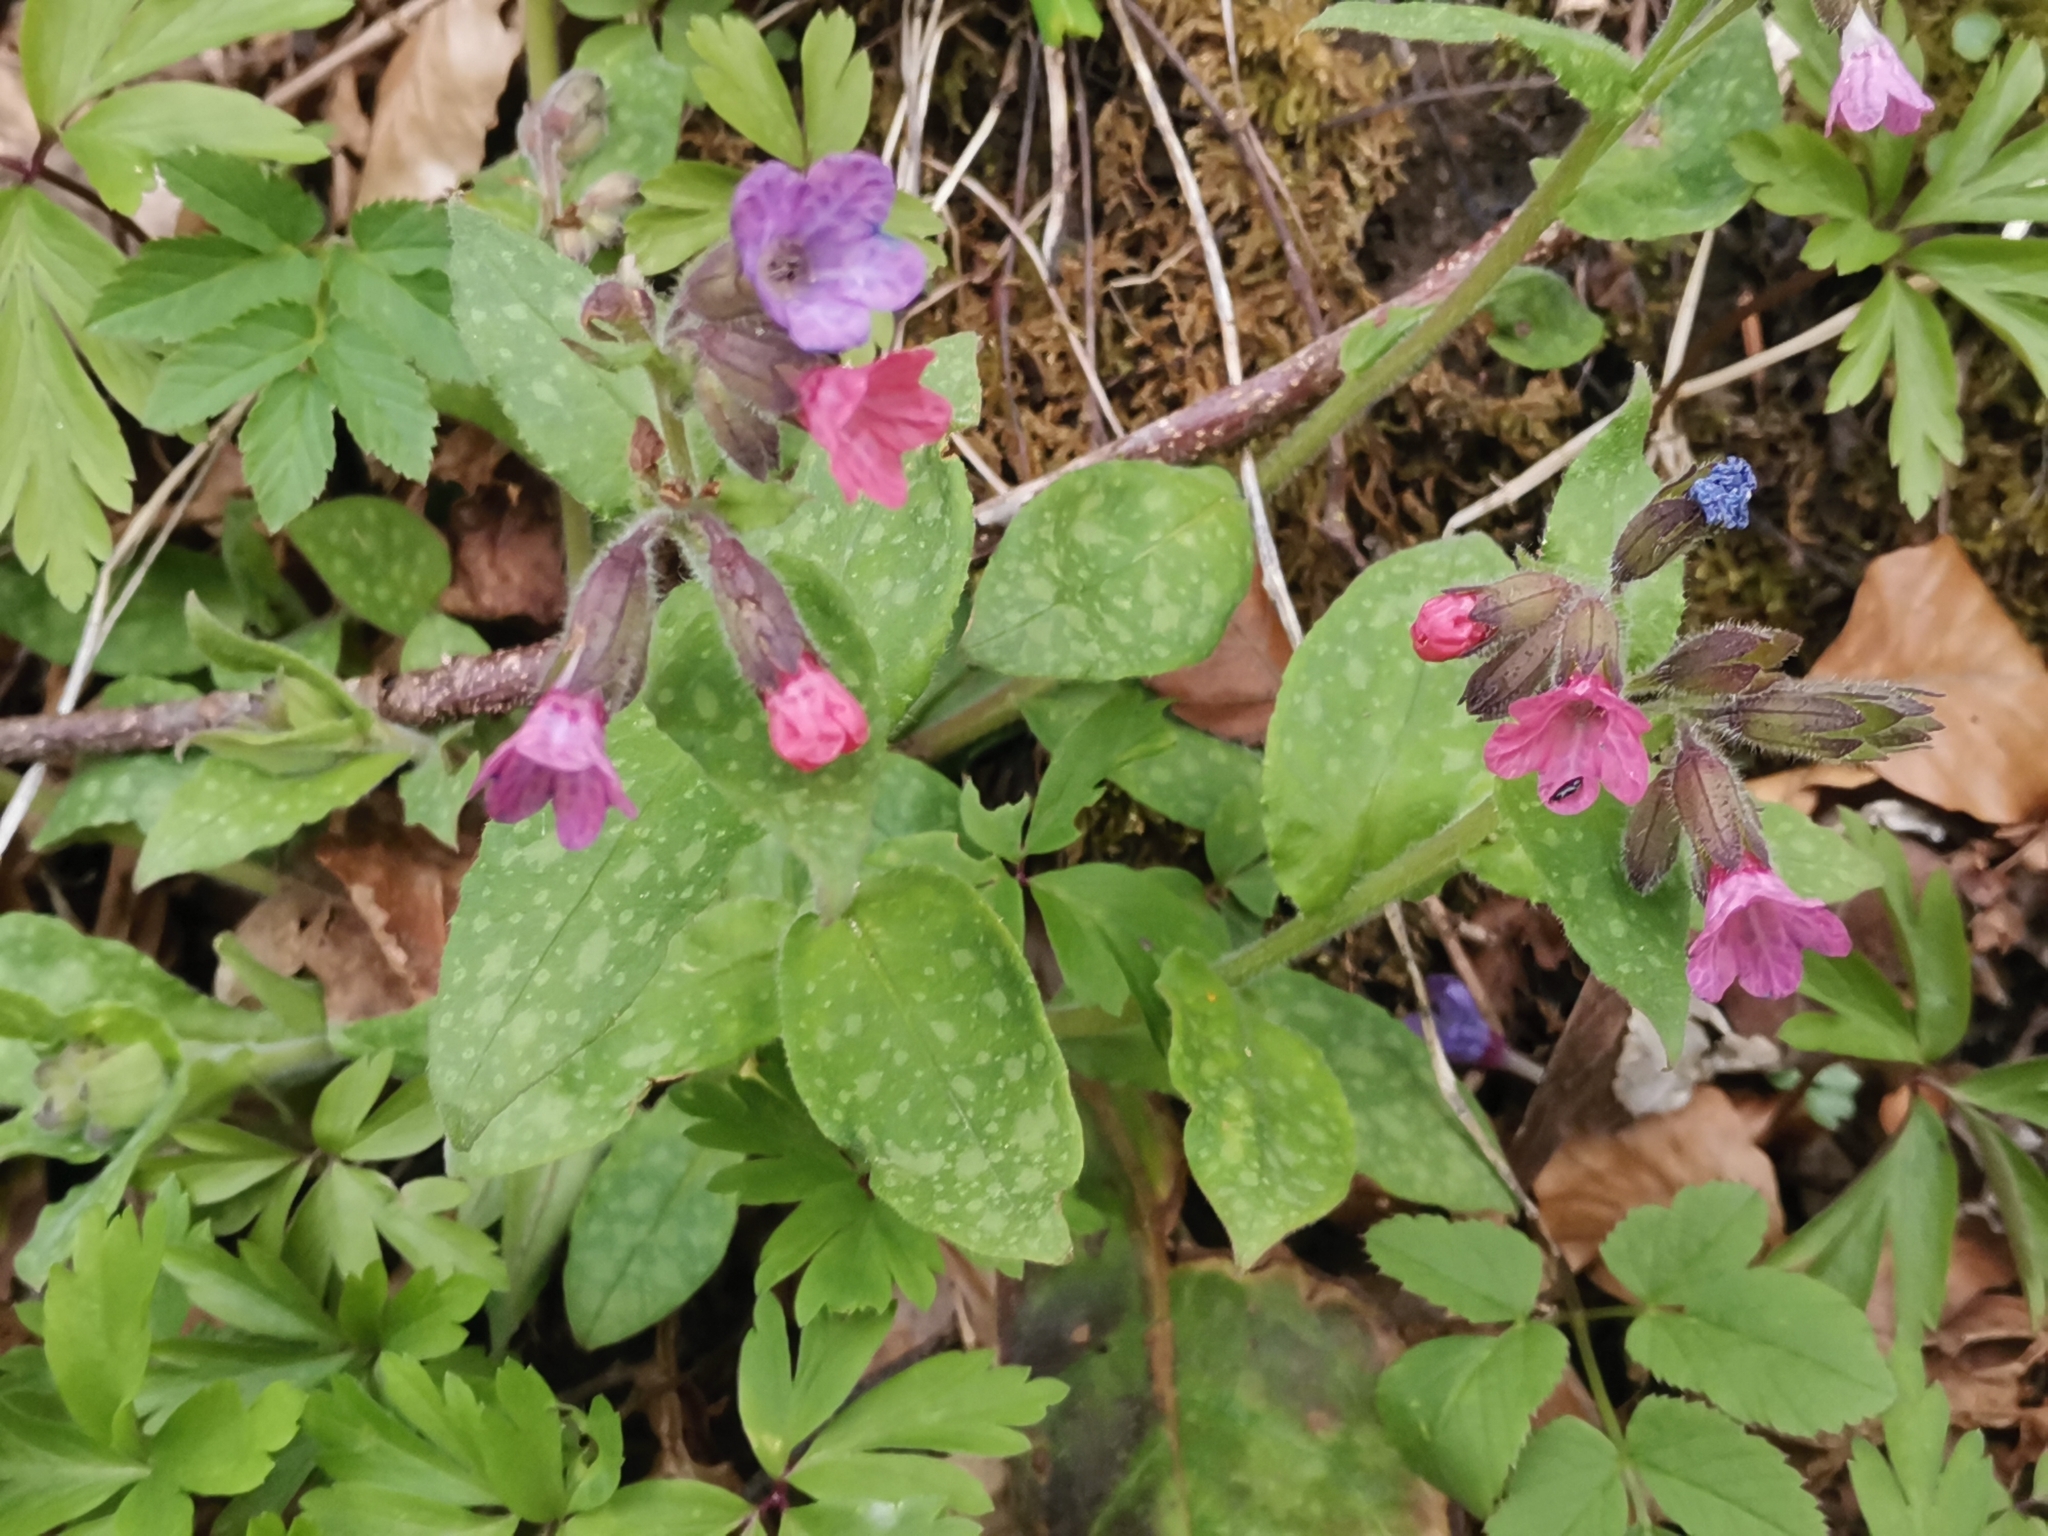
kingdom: Plantae
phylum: Tracheophyta
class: Magnoliopsida
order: Boraginales
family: Boraginaceae
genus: Pulmonaria
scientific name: Pulmonaria officinalis
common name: Lungwort
